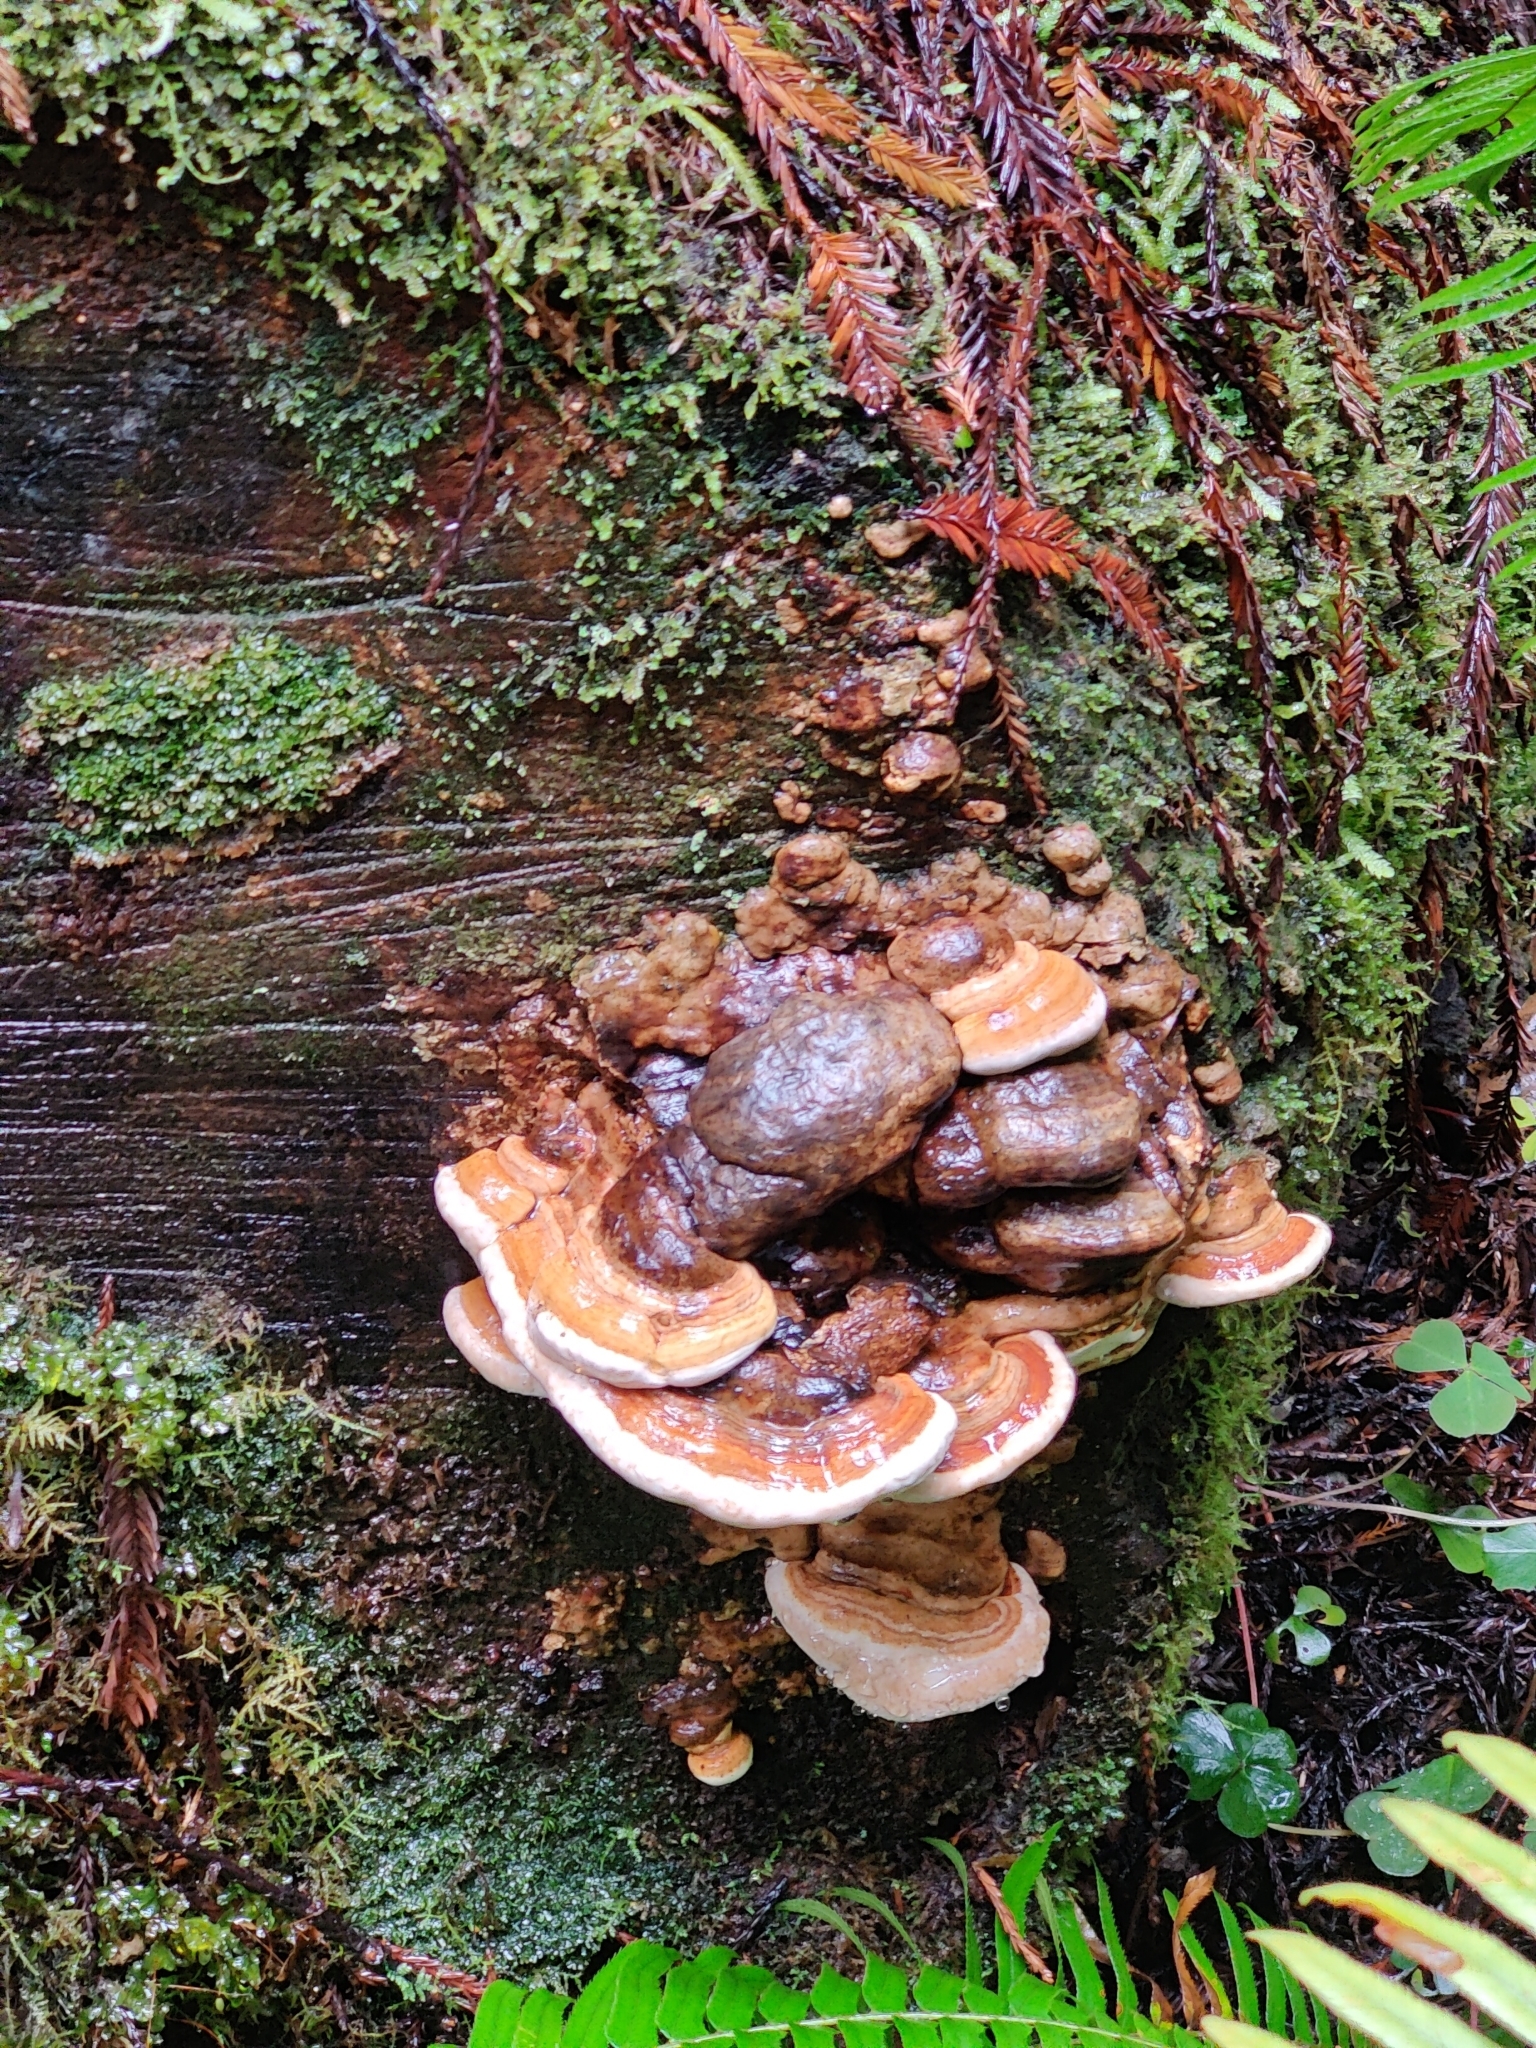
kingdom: Fungi
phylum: Basidiomycota
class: Agaricomycetes
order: Polyporales
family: Fomitopsidaceae
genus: Fomitopsis
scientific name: Fomitopsis mounceae
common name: Northern red belt
